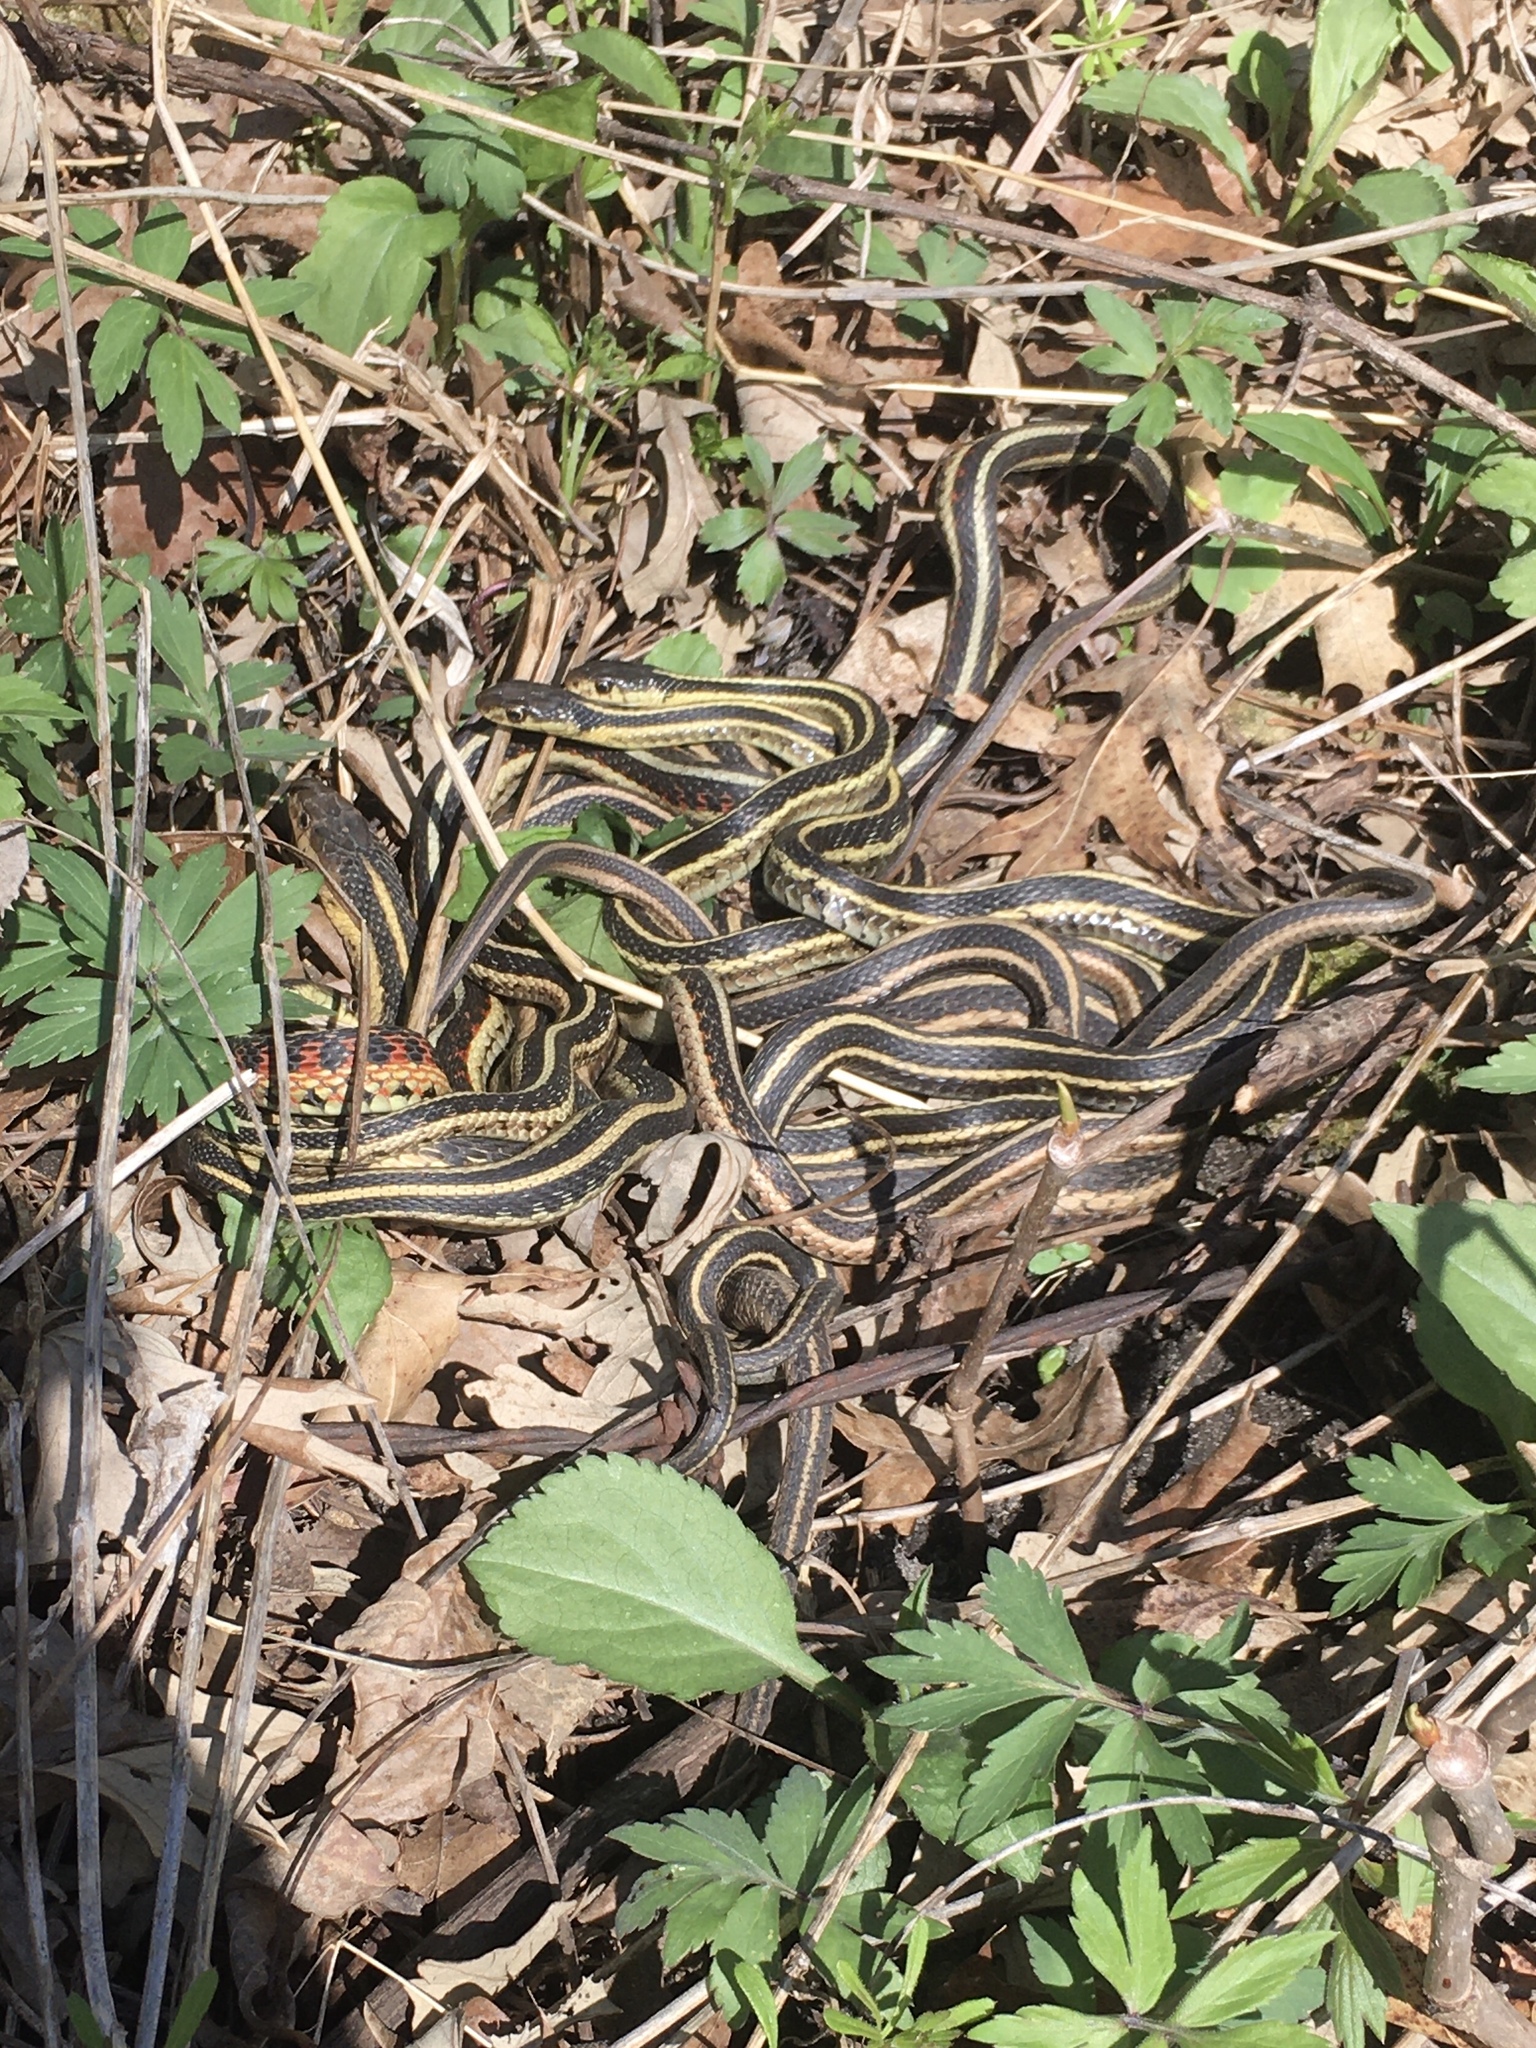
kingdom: Animalia
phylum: Chordata
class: Squamata
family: Colubridae
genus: Thamnophis
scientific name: Thamnophis sirtalis
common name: Common garter snake
